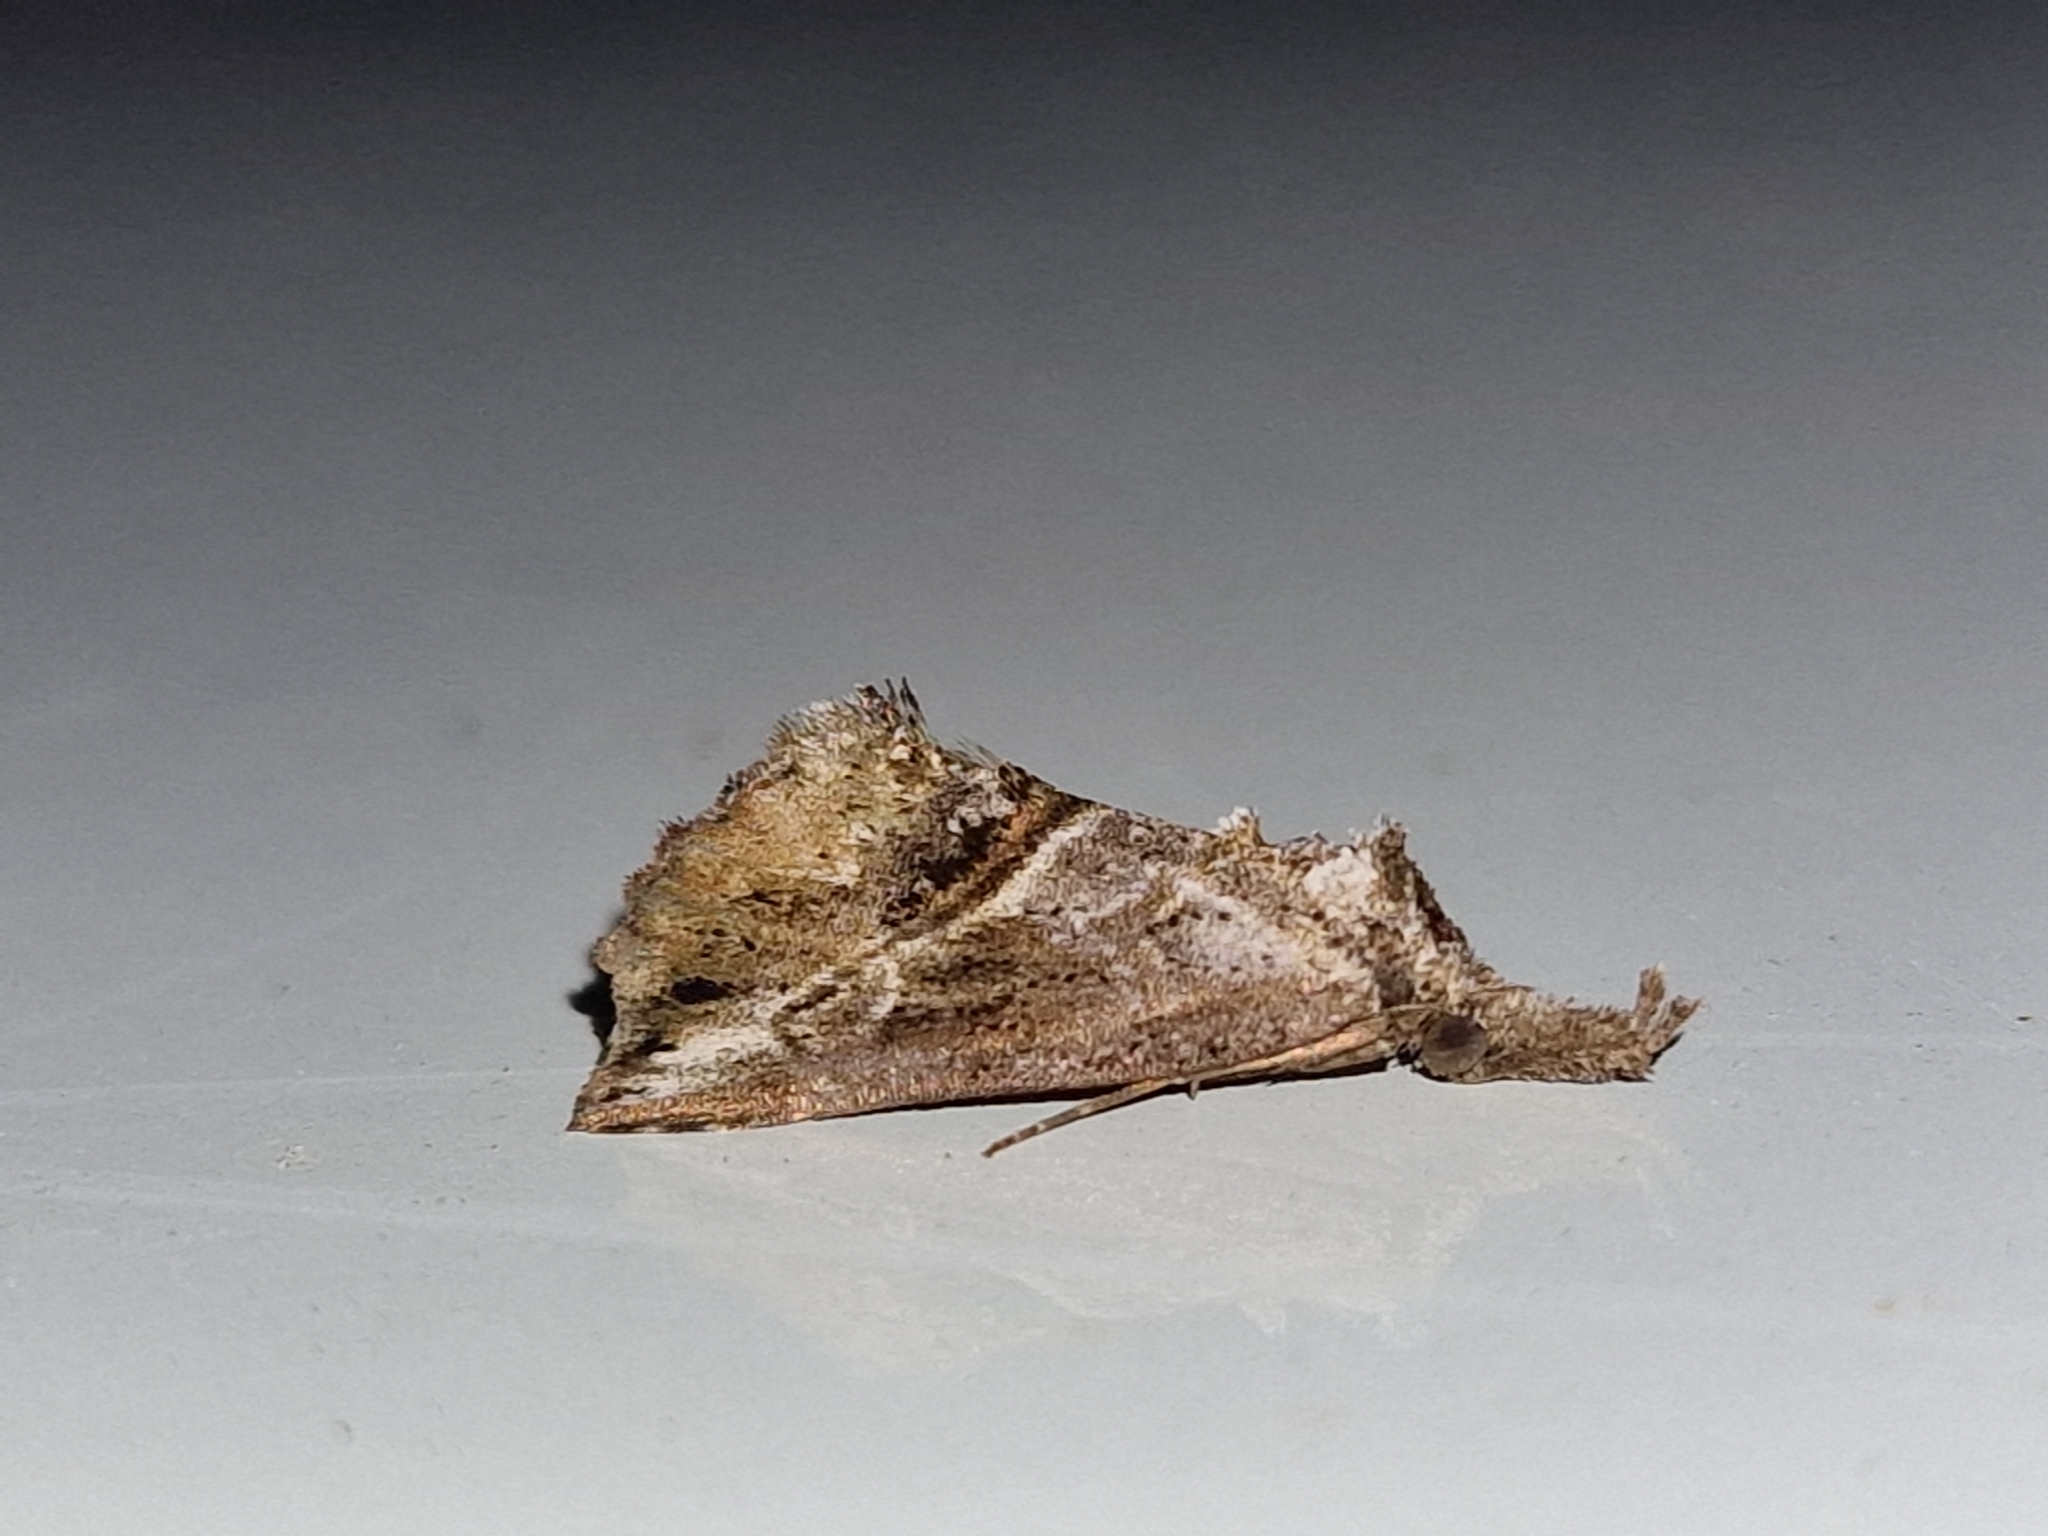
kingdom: Animalia
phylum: Arthropoda
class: Insecta
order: Lepidoptera
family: Erebidae
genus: Zekelita
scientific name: Zekelita antiqualis
